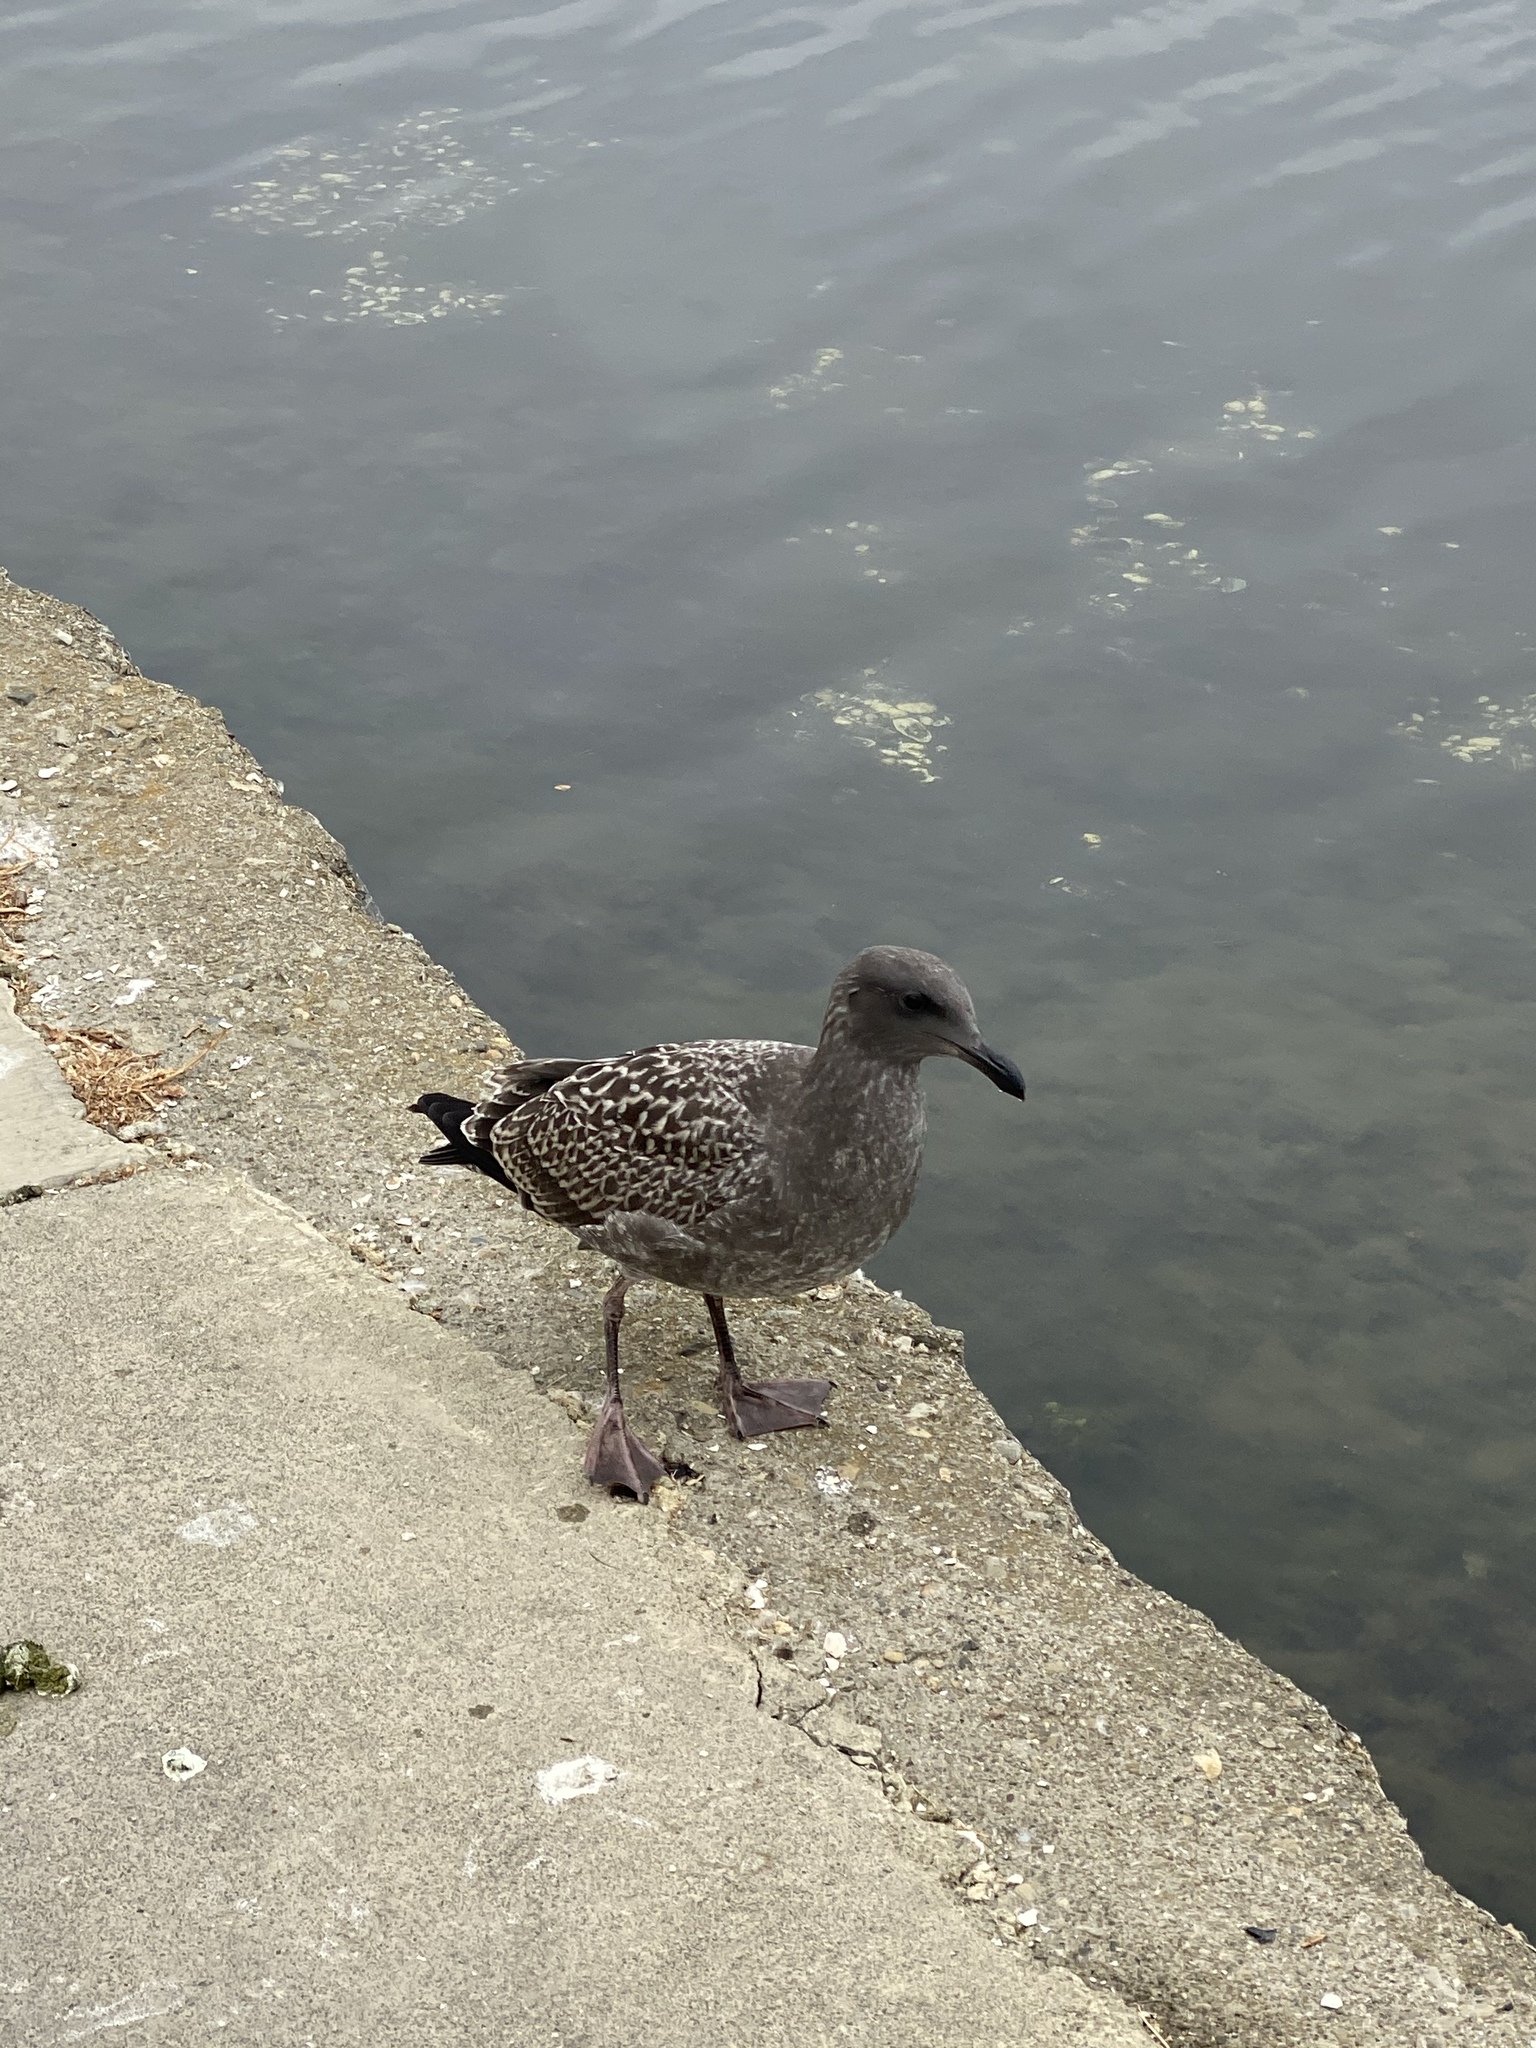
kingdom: Animalia
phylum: Chordata
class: Aves
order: Charadriiformes
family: Laridae
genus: Larus
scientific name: Larus heermanni
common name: Heermann's gull
